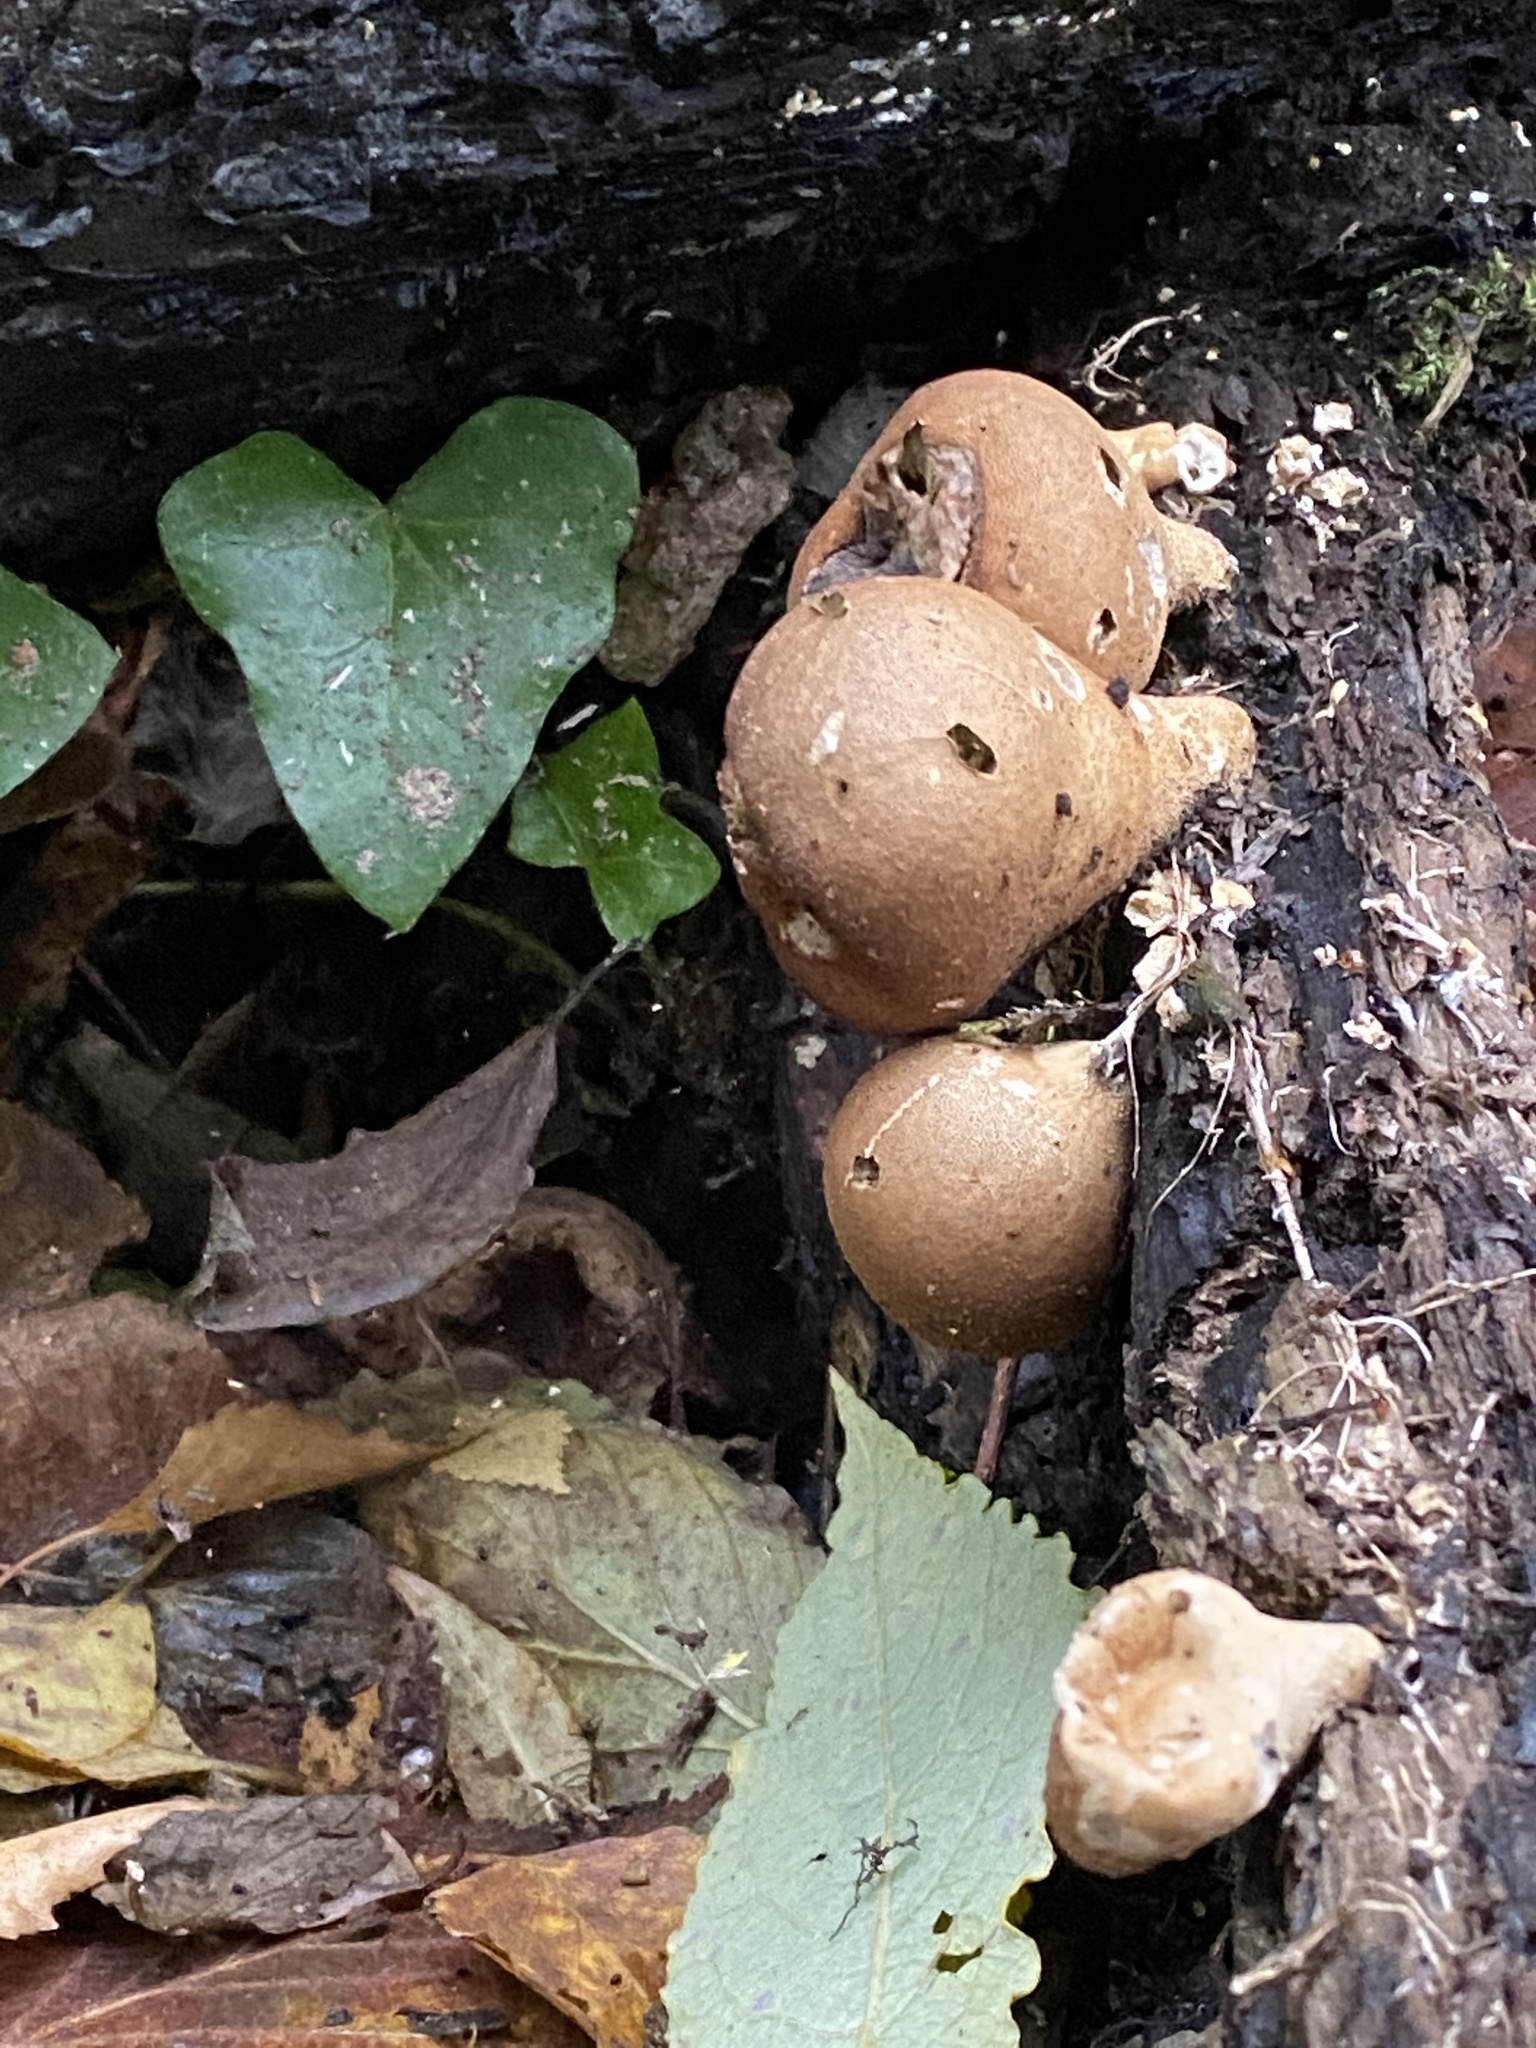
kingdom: Fungi
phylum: Basidiomycota
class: Agaricomycetes
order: Agaricales
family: Lycoperdaceae
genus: Apioperdon
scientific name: Apioperdon pyriforme
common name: Pear-shaped puffball
